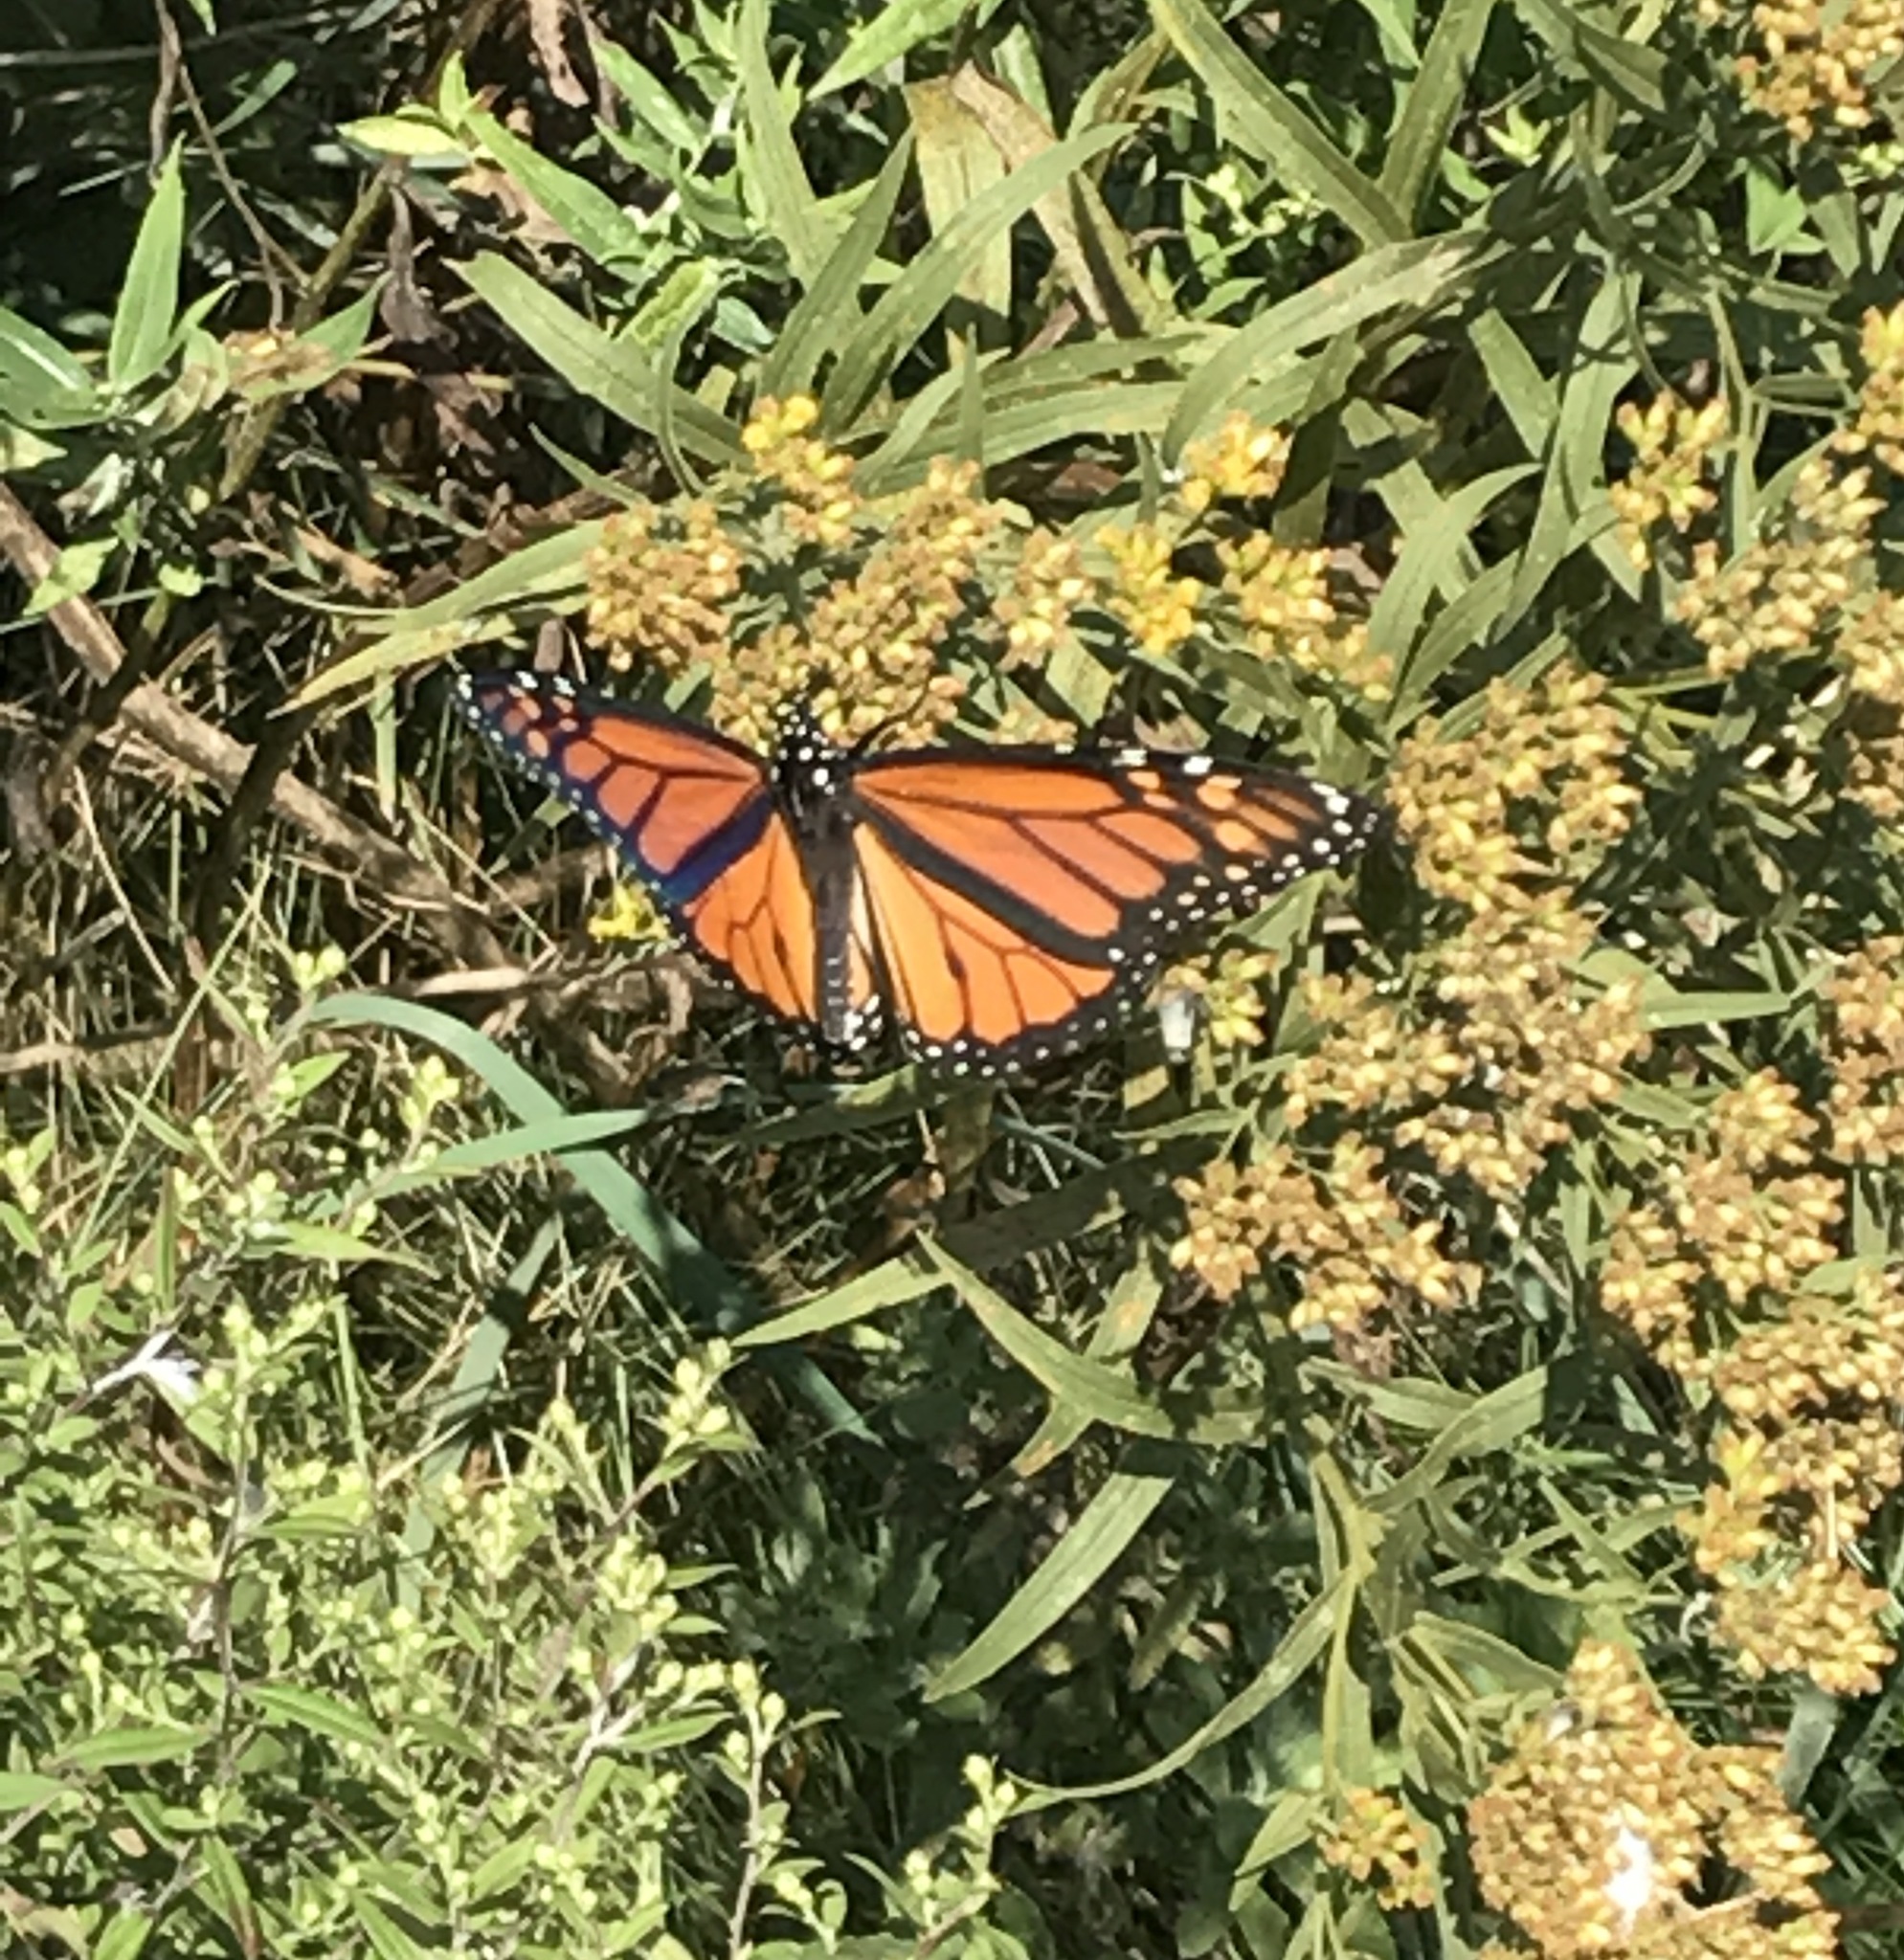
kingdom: Animalia
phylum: Arthropoda
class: Insecta
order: Lepidoptera
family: Nymphalidae
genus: Danaus
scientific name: Danaus plexippus
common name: Monarch
